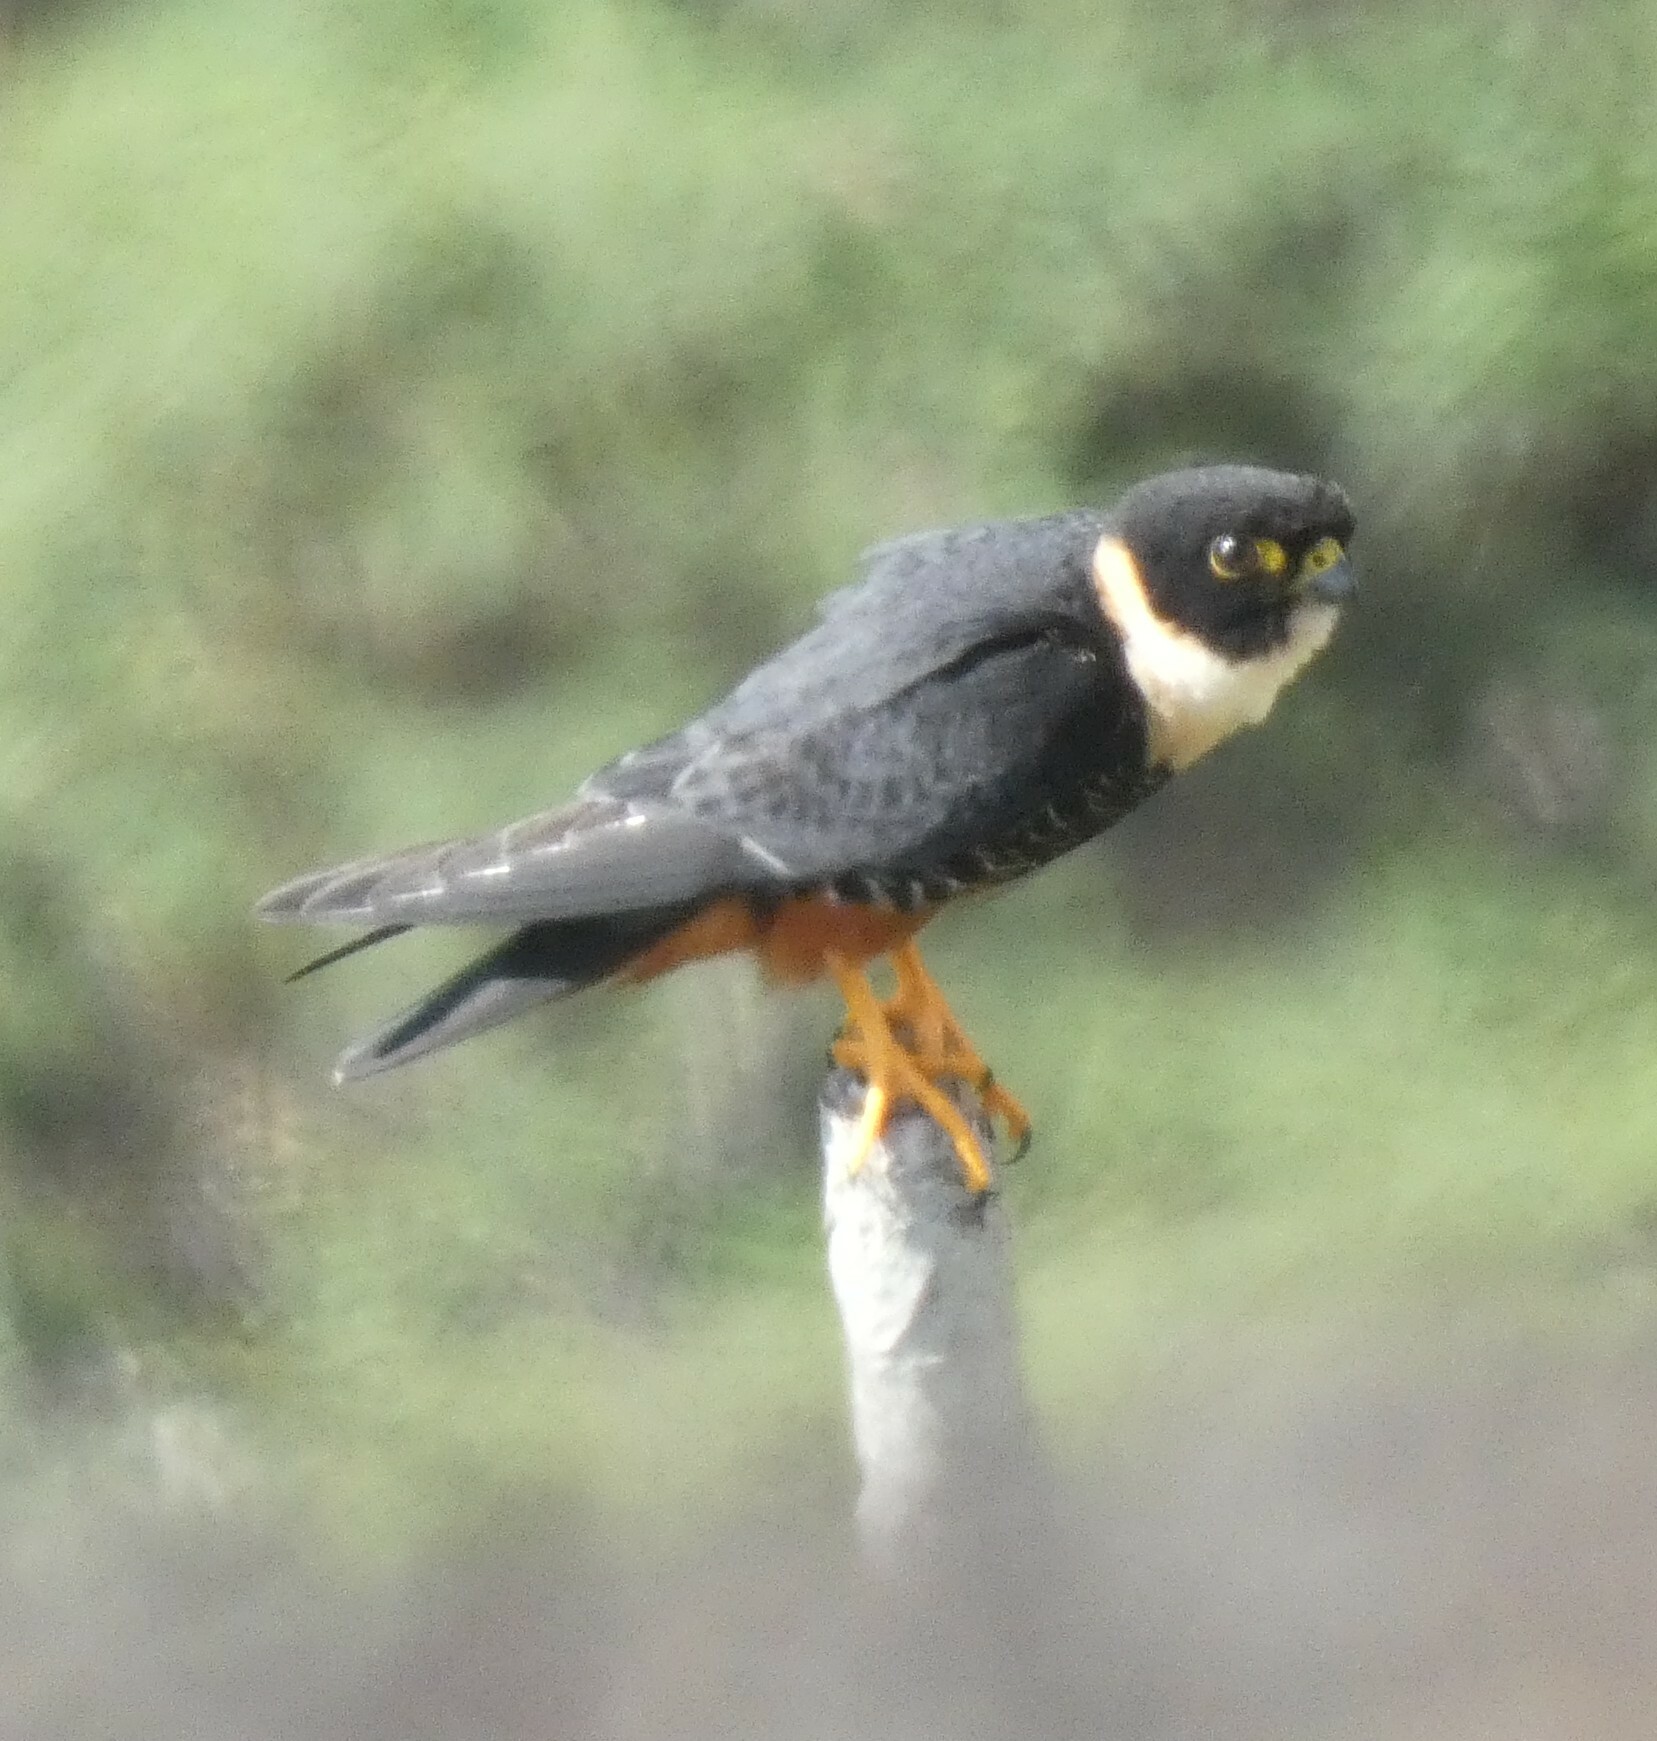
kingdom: Animalia
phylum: Chordata
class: Aves
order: Falconiformes
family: Falconidae
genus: Falco
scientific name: Falco rufigularis
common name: Bat falcon
